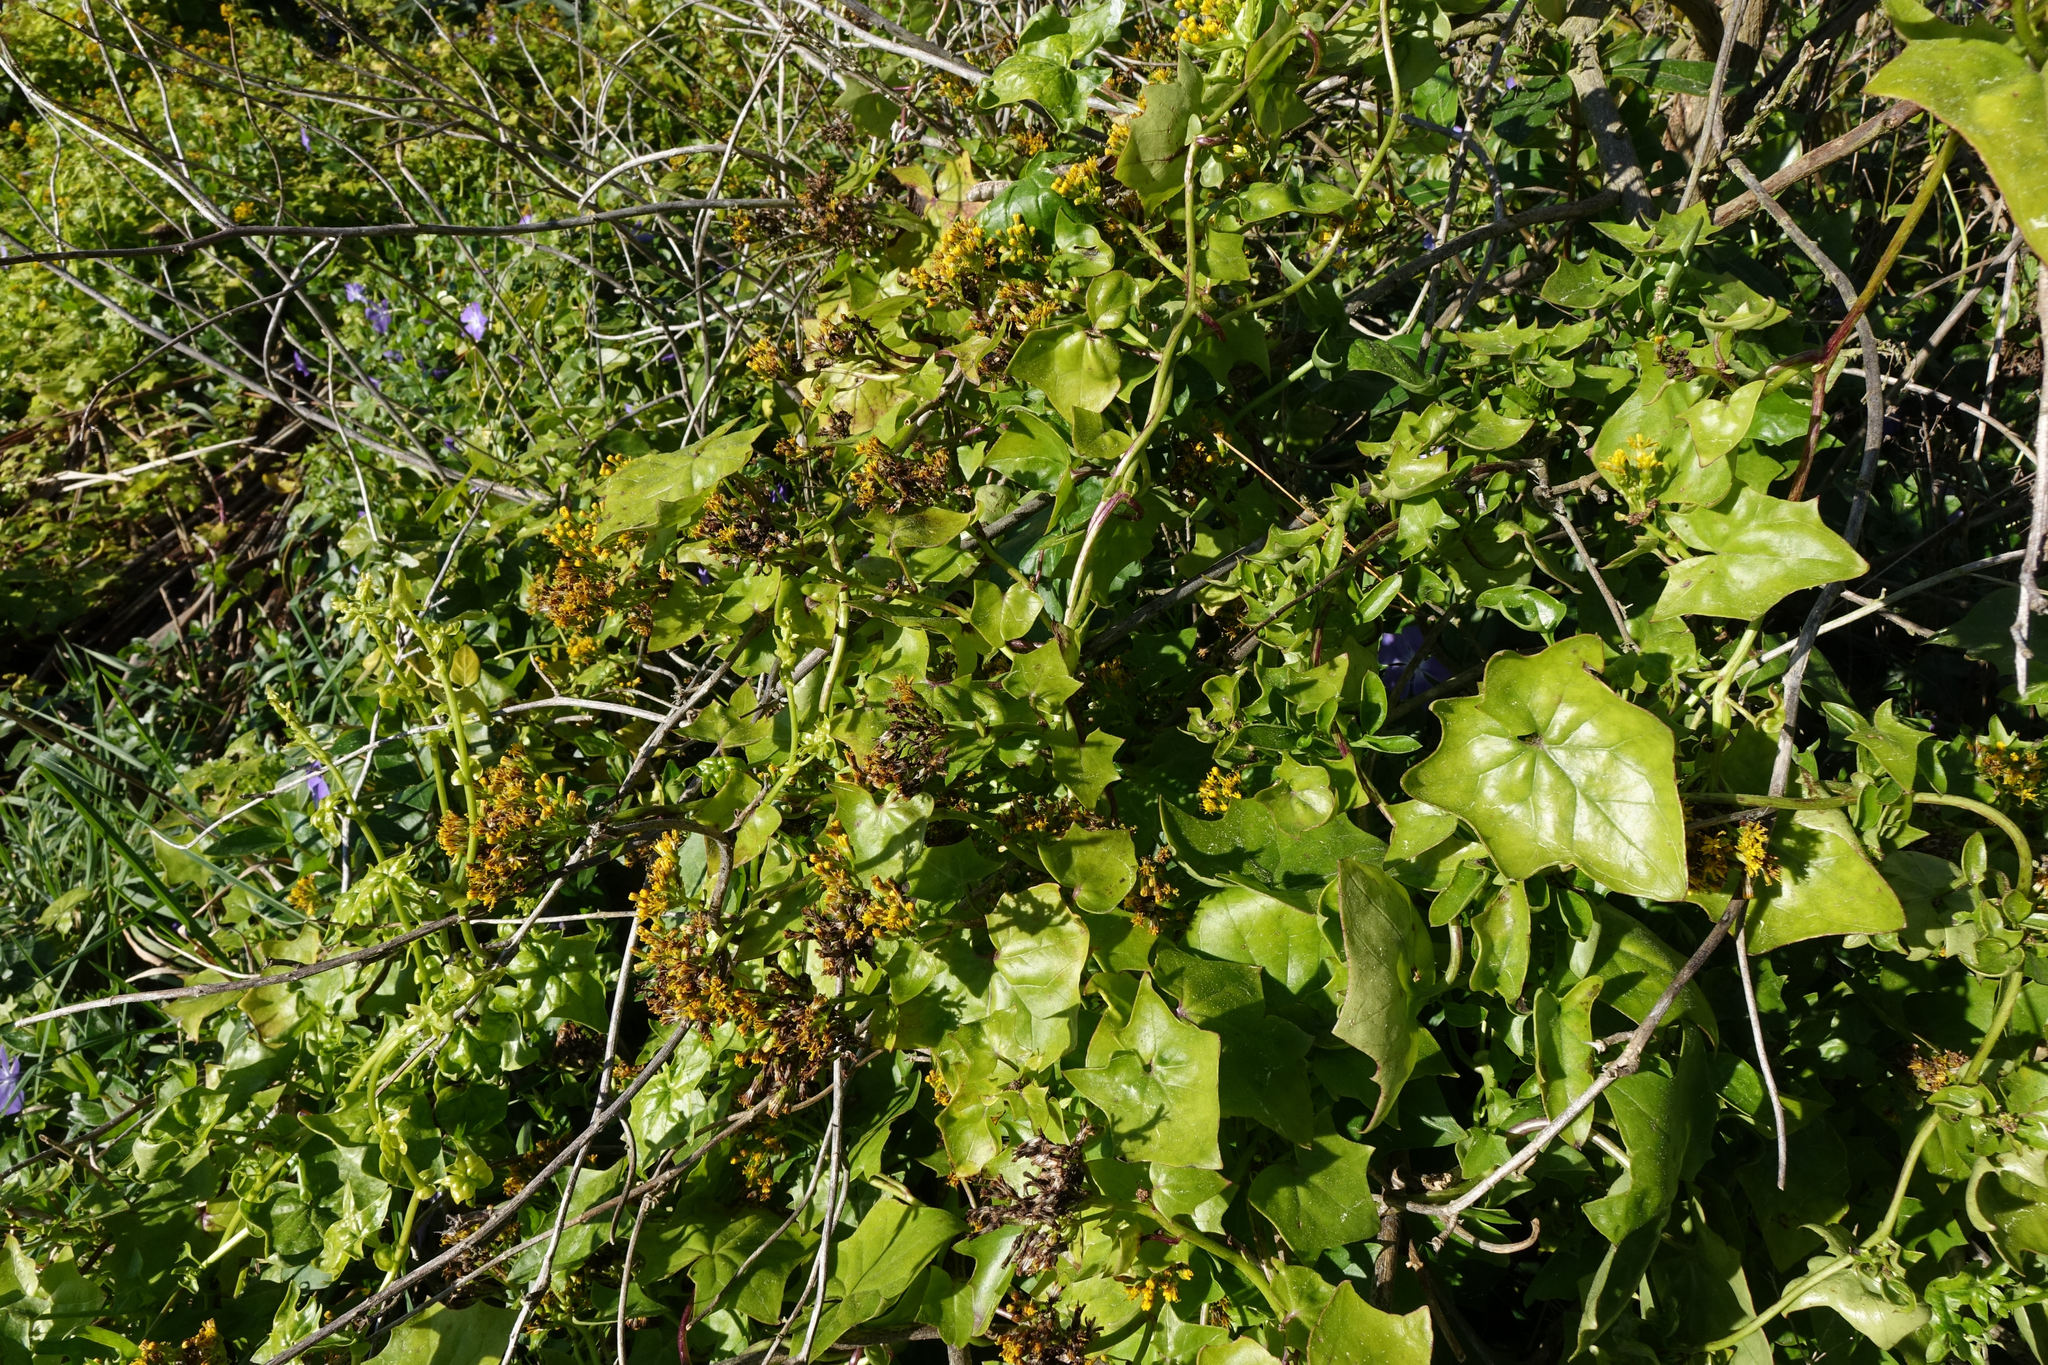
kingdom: Plantae
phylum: Tracheophyta
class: Magnoliopsida
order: Asterales
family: Asteraceae
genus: Delairea
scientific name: Delairea odorata
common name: Cape-ivy
